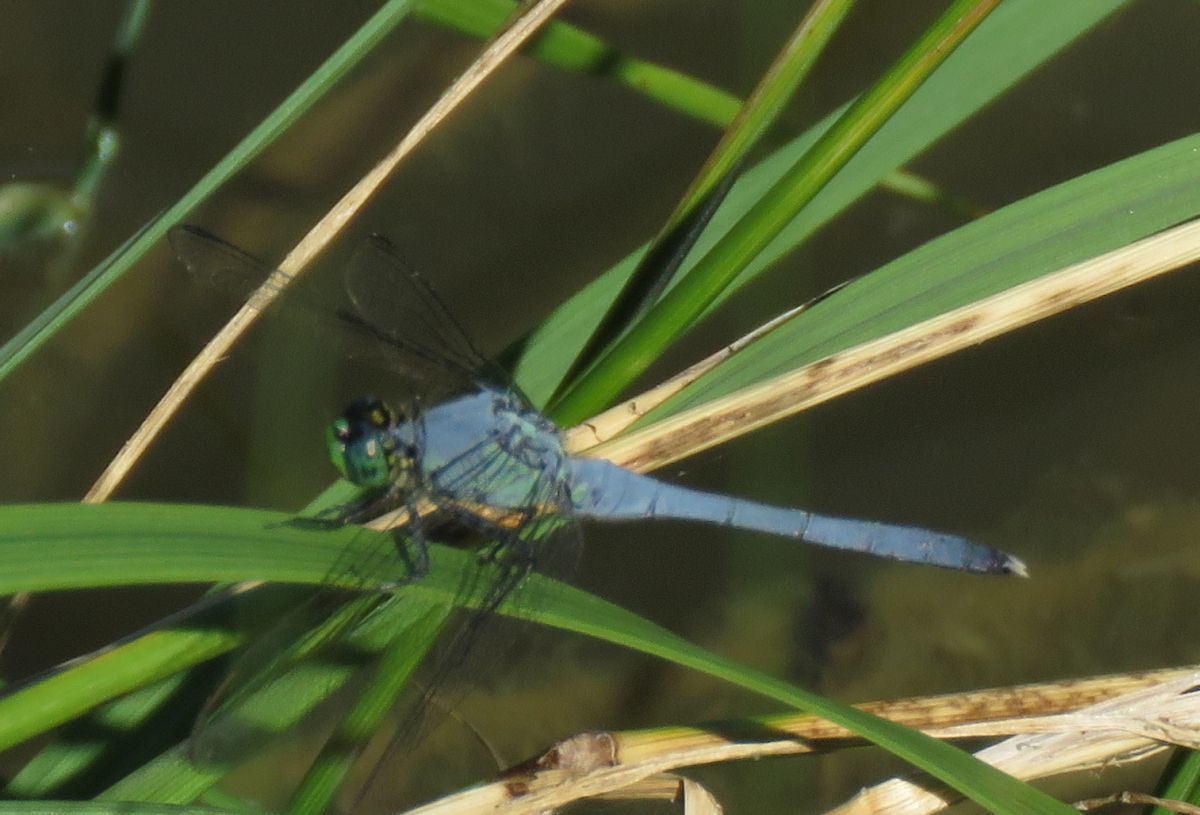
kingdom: Animalia
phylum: Arthropoda
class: Insecta
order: Odonata
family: Libellulidae
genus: Erythemis
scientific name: Erythemis simplicicollis
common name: Eastern pondhawk
